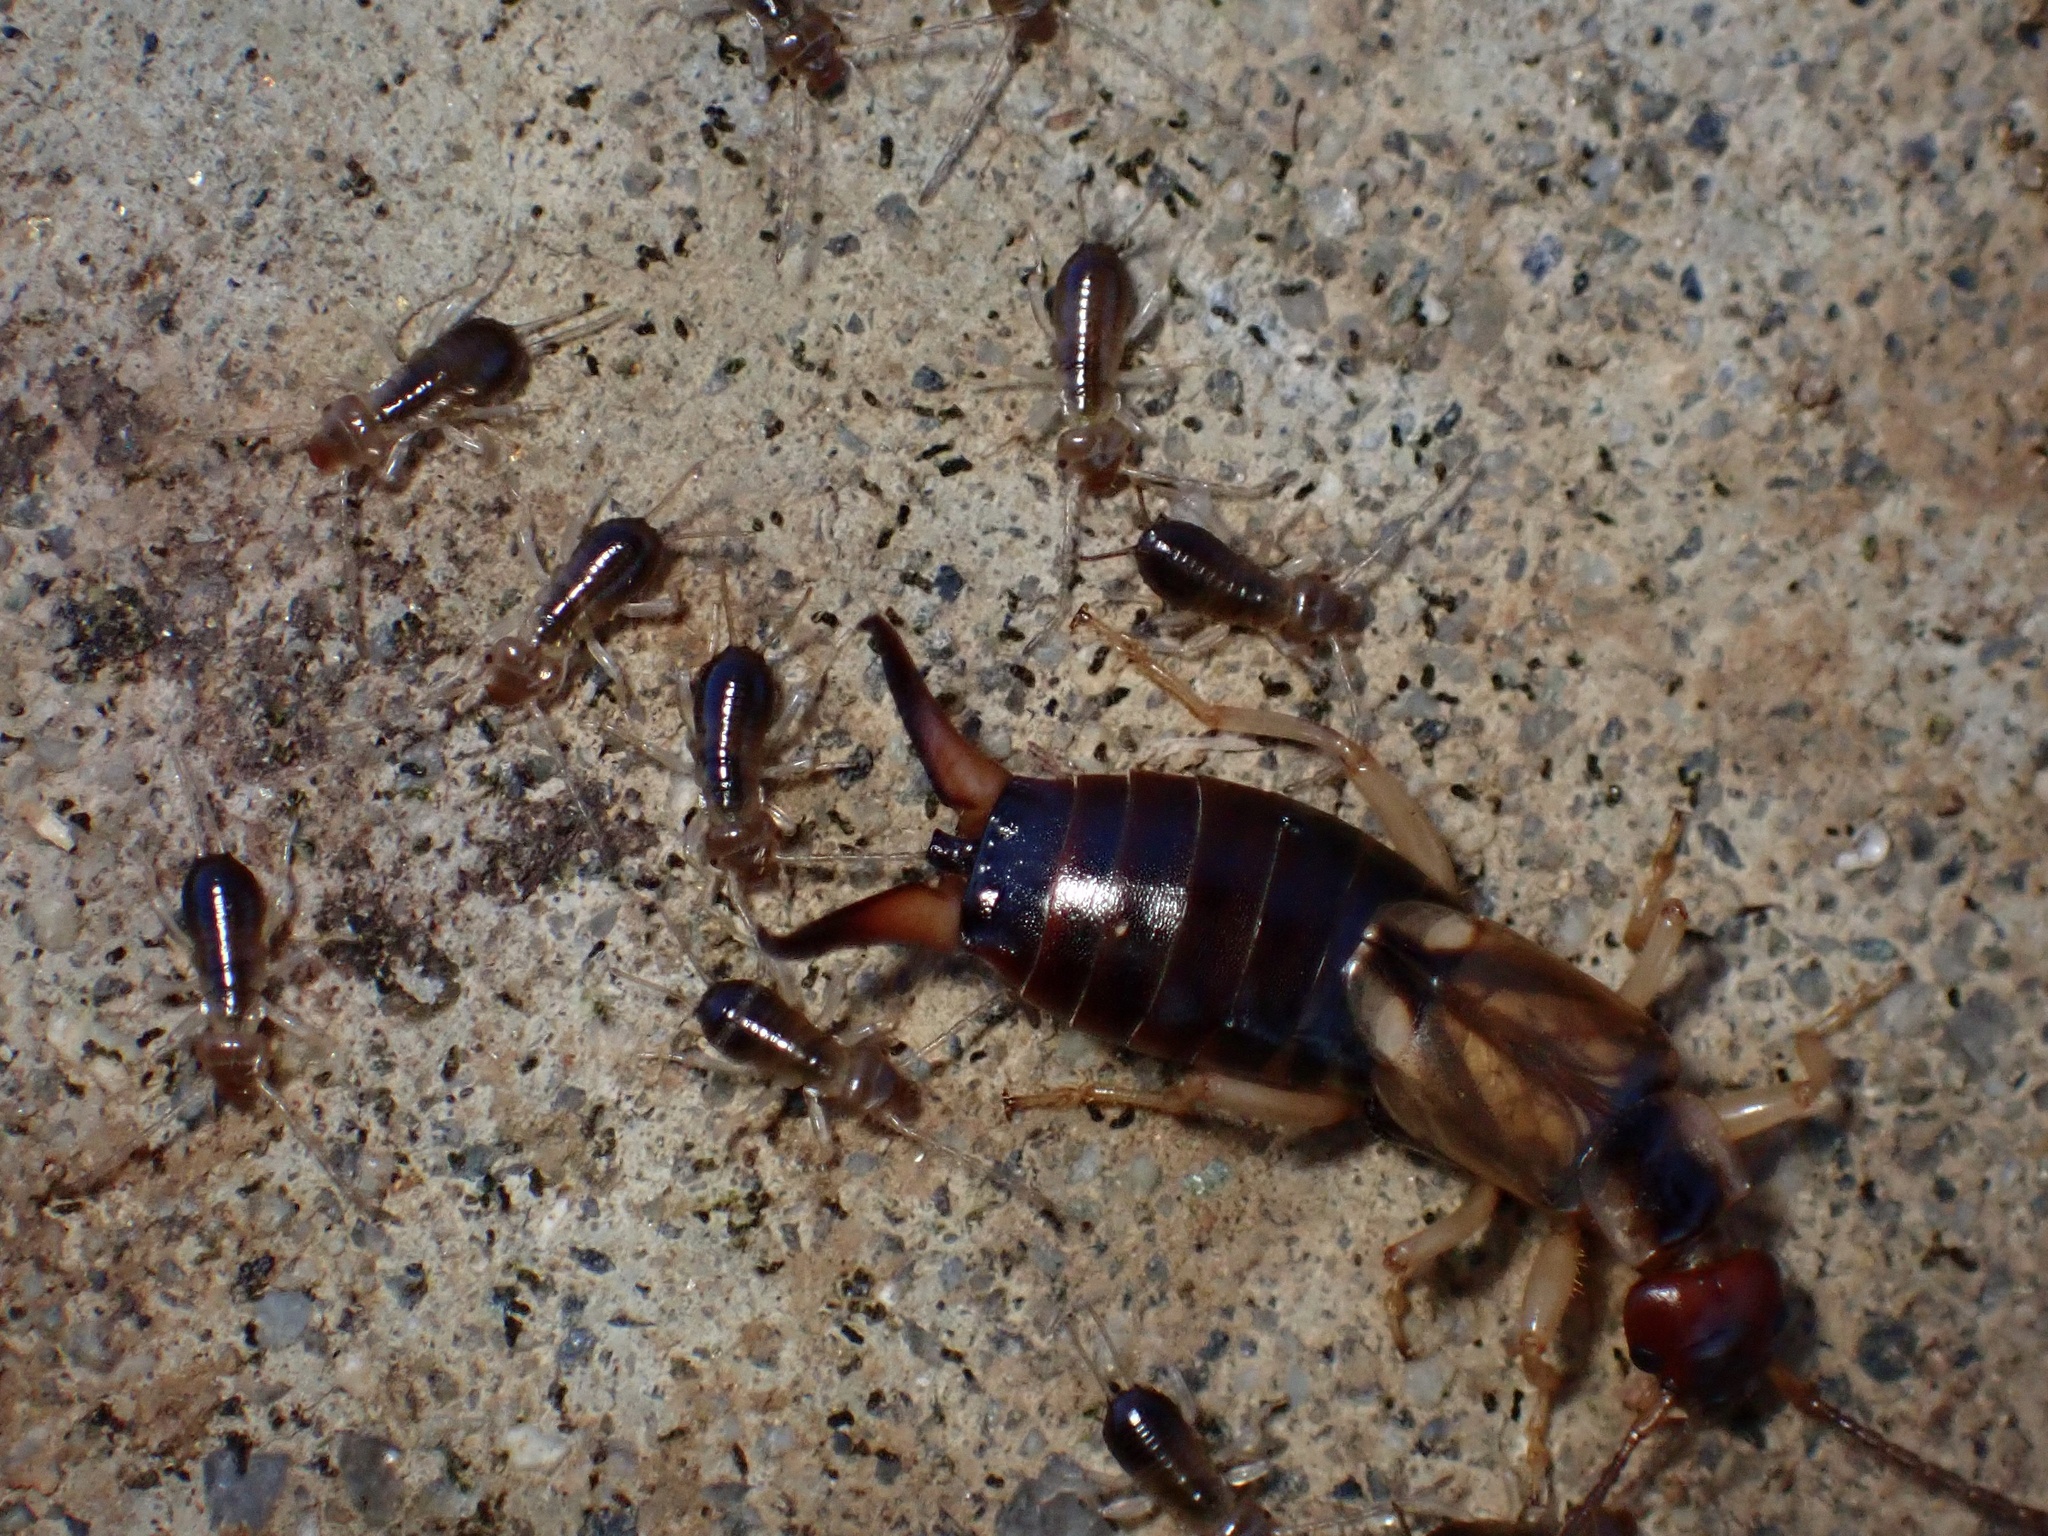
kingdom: Animalia
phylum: Arthropoda
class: Insecta
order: Dermaptera
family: Forficulidae
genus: Forficula
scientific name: Forficula
